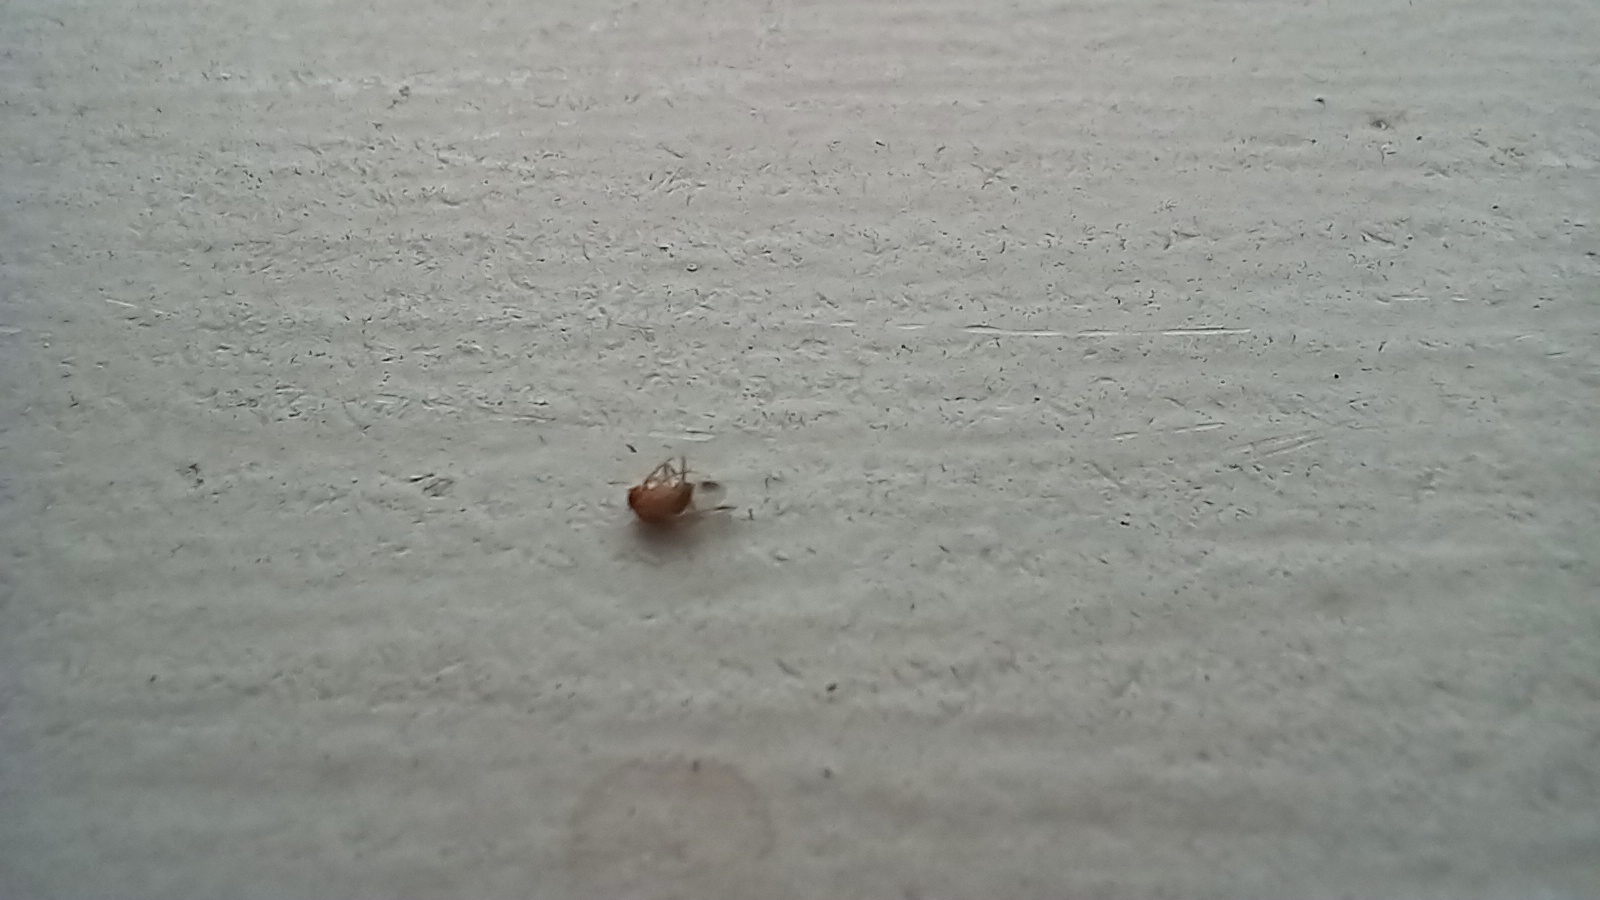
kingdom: Animalia
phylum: Arthropoda
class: Insecta
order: Diptera
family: Drosophilidae
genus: Drosophila
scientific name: Drosophila suzukii
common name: Spotted-wing drosophila
